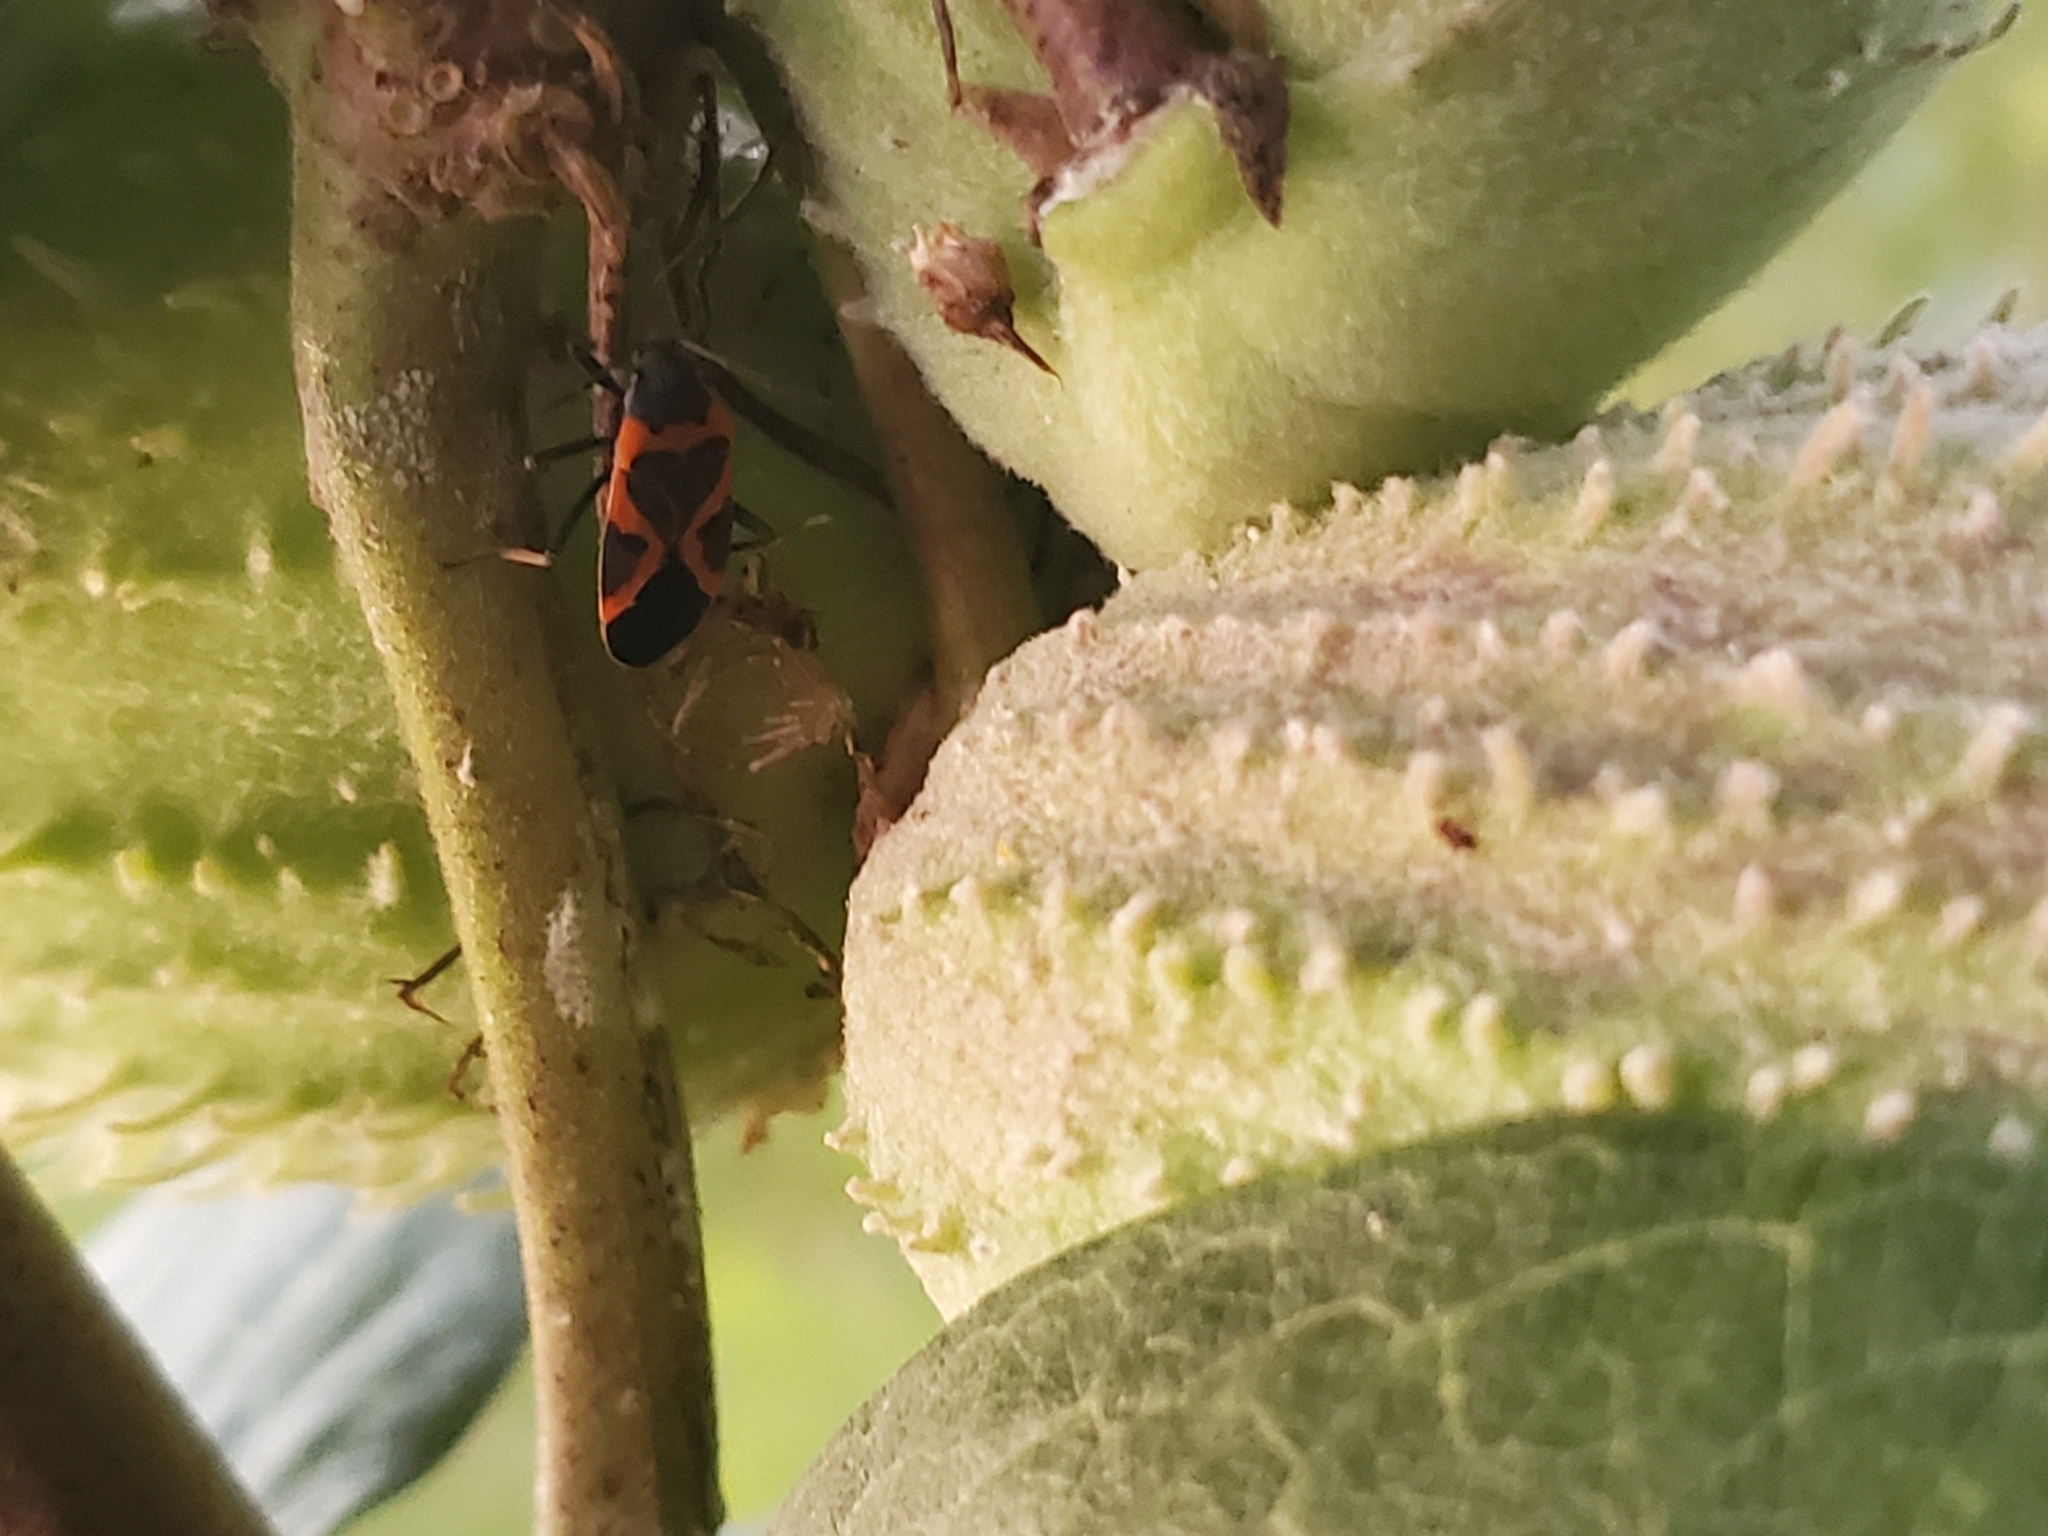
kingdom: Animalia
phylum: Arthropoda
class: Insecta
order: Hemiptera
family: Lygaeidae
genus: Lygaeus
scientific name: Lygaeus kalmii
